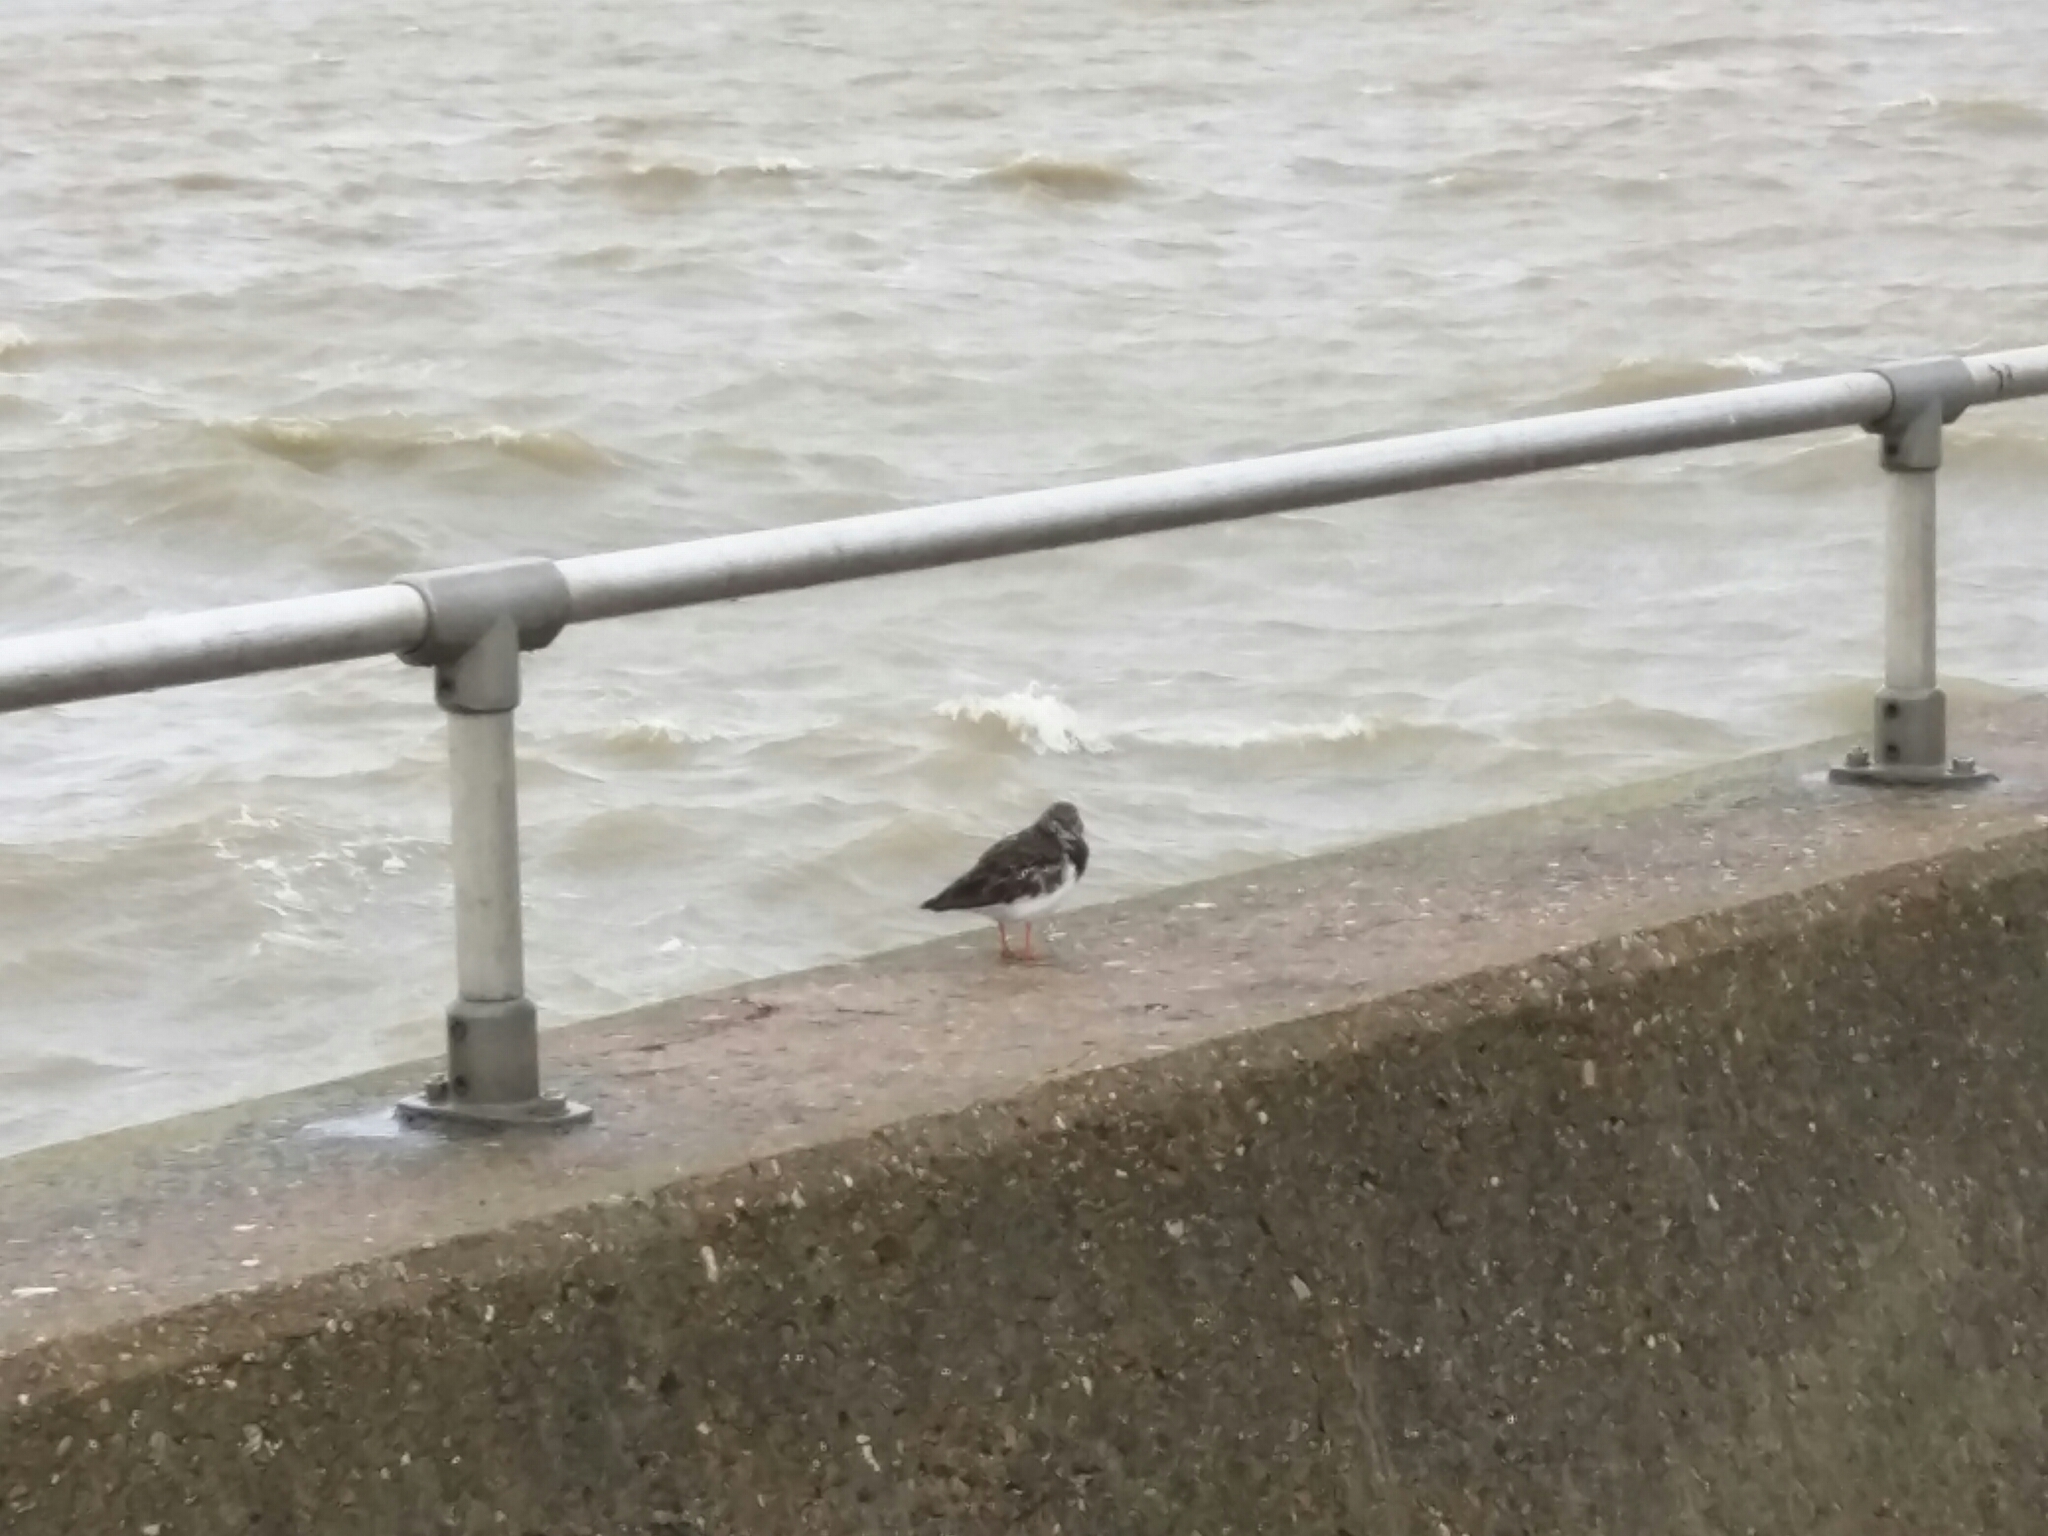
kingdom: Animalia
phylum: Chordata
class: Aves
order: Charadriiformes
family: Scolopacidae
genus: Arenaria
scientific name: Arenaria interpres
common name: Ruddy turnstone
